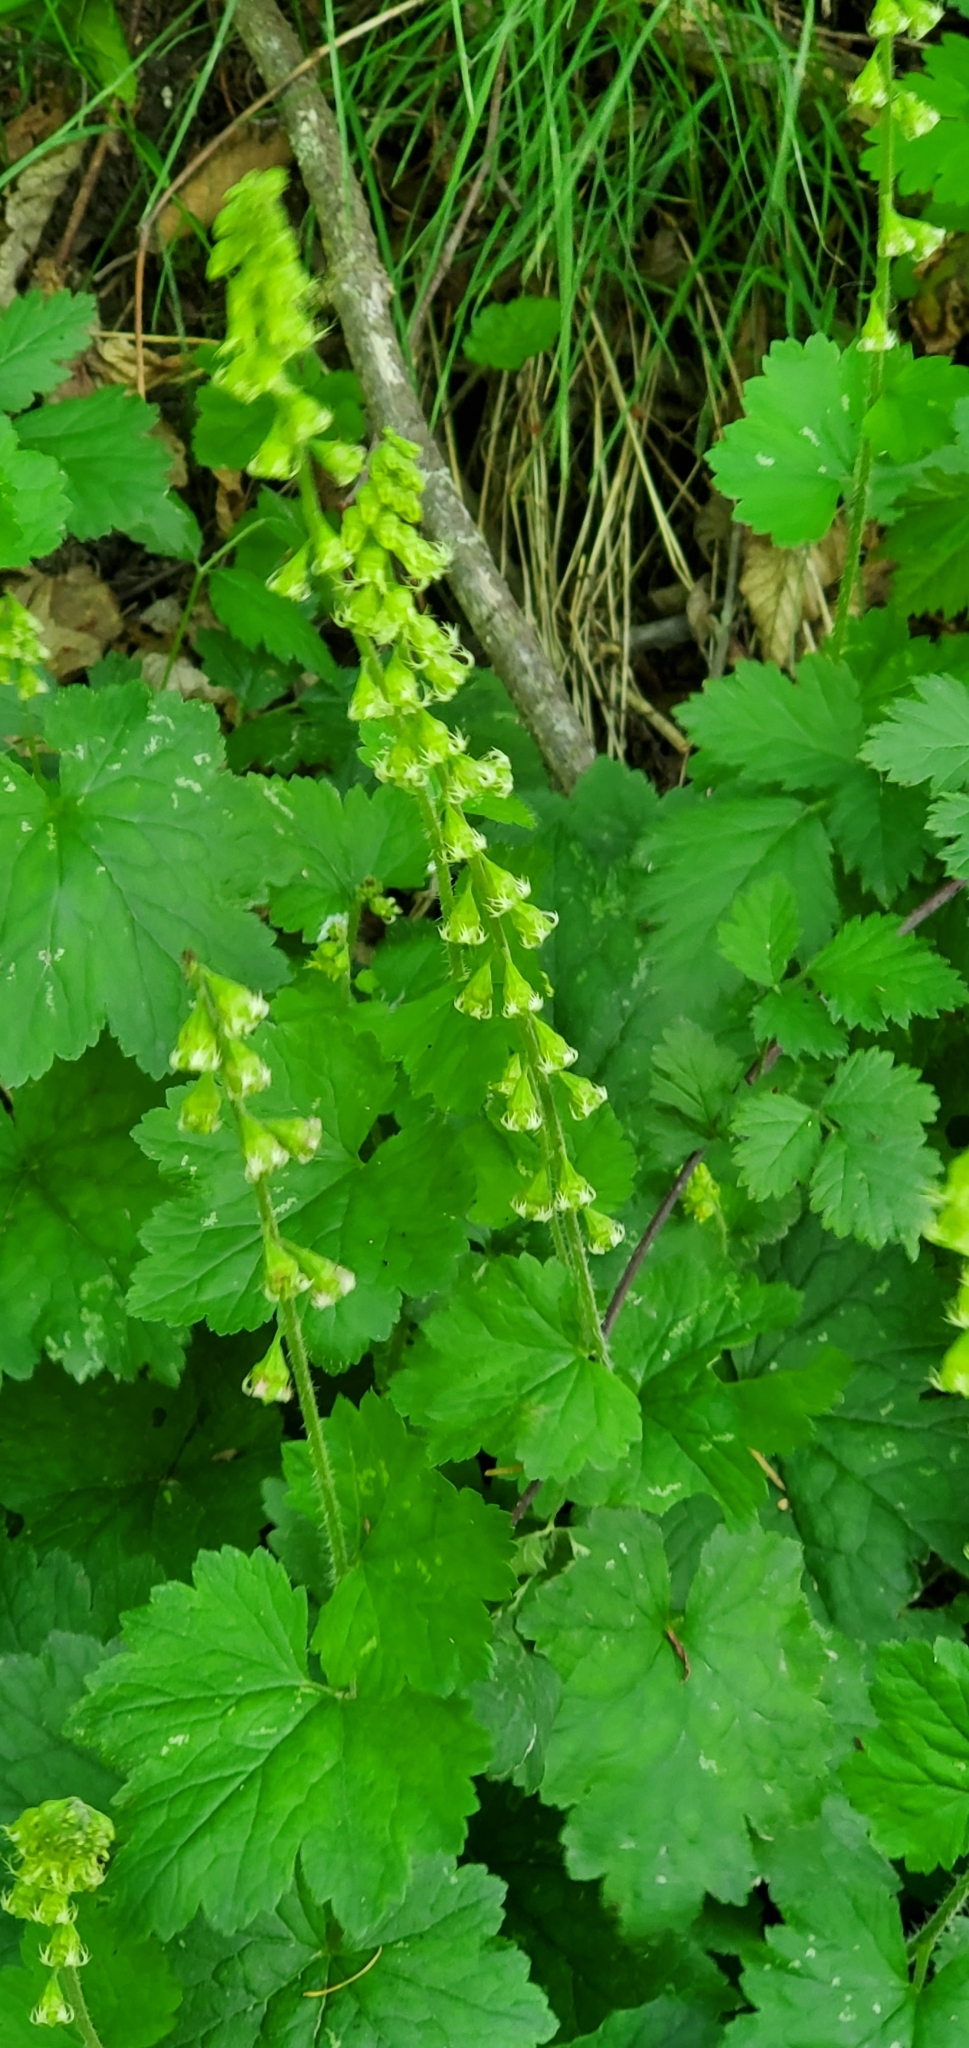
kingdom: Plantae
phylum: Tracheophyta
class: Magnoliopsida
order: Saxifragales
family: Saxifragaceae
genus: Tellima
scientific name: Tellima grandiflora
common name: Fringecups
